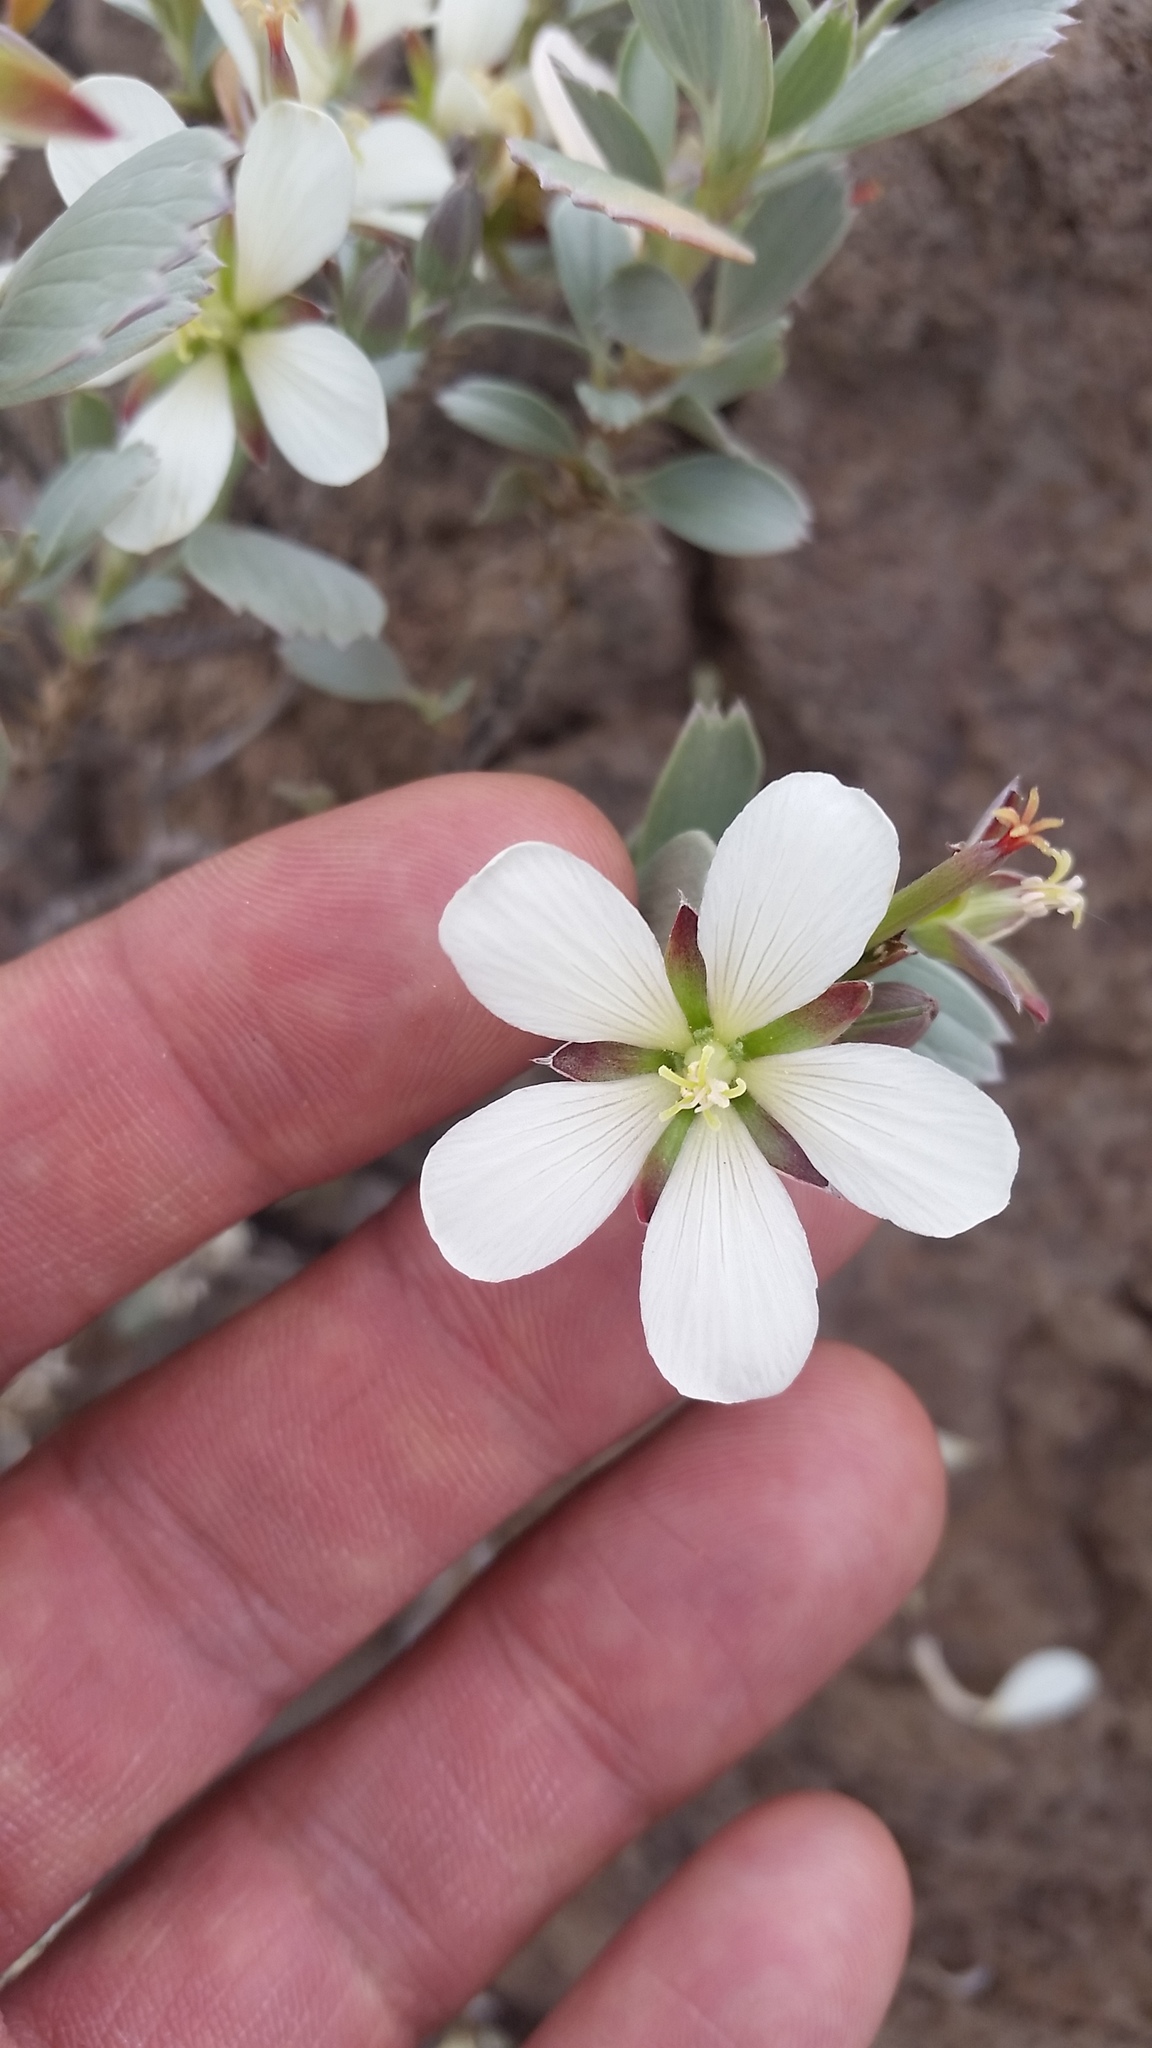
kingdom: Plantae
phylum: Tracheophyta
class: Magnoliopsida
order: Geraniales
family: Geraniaceae
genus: Geranium
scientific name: Geranium cuneatum
